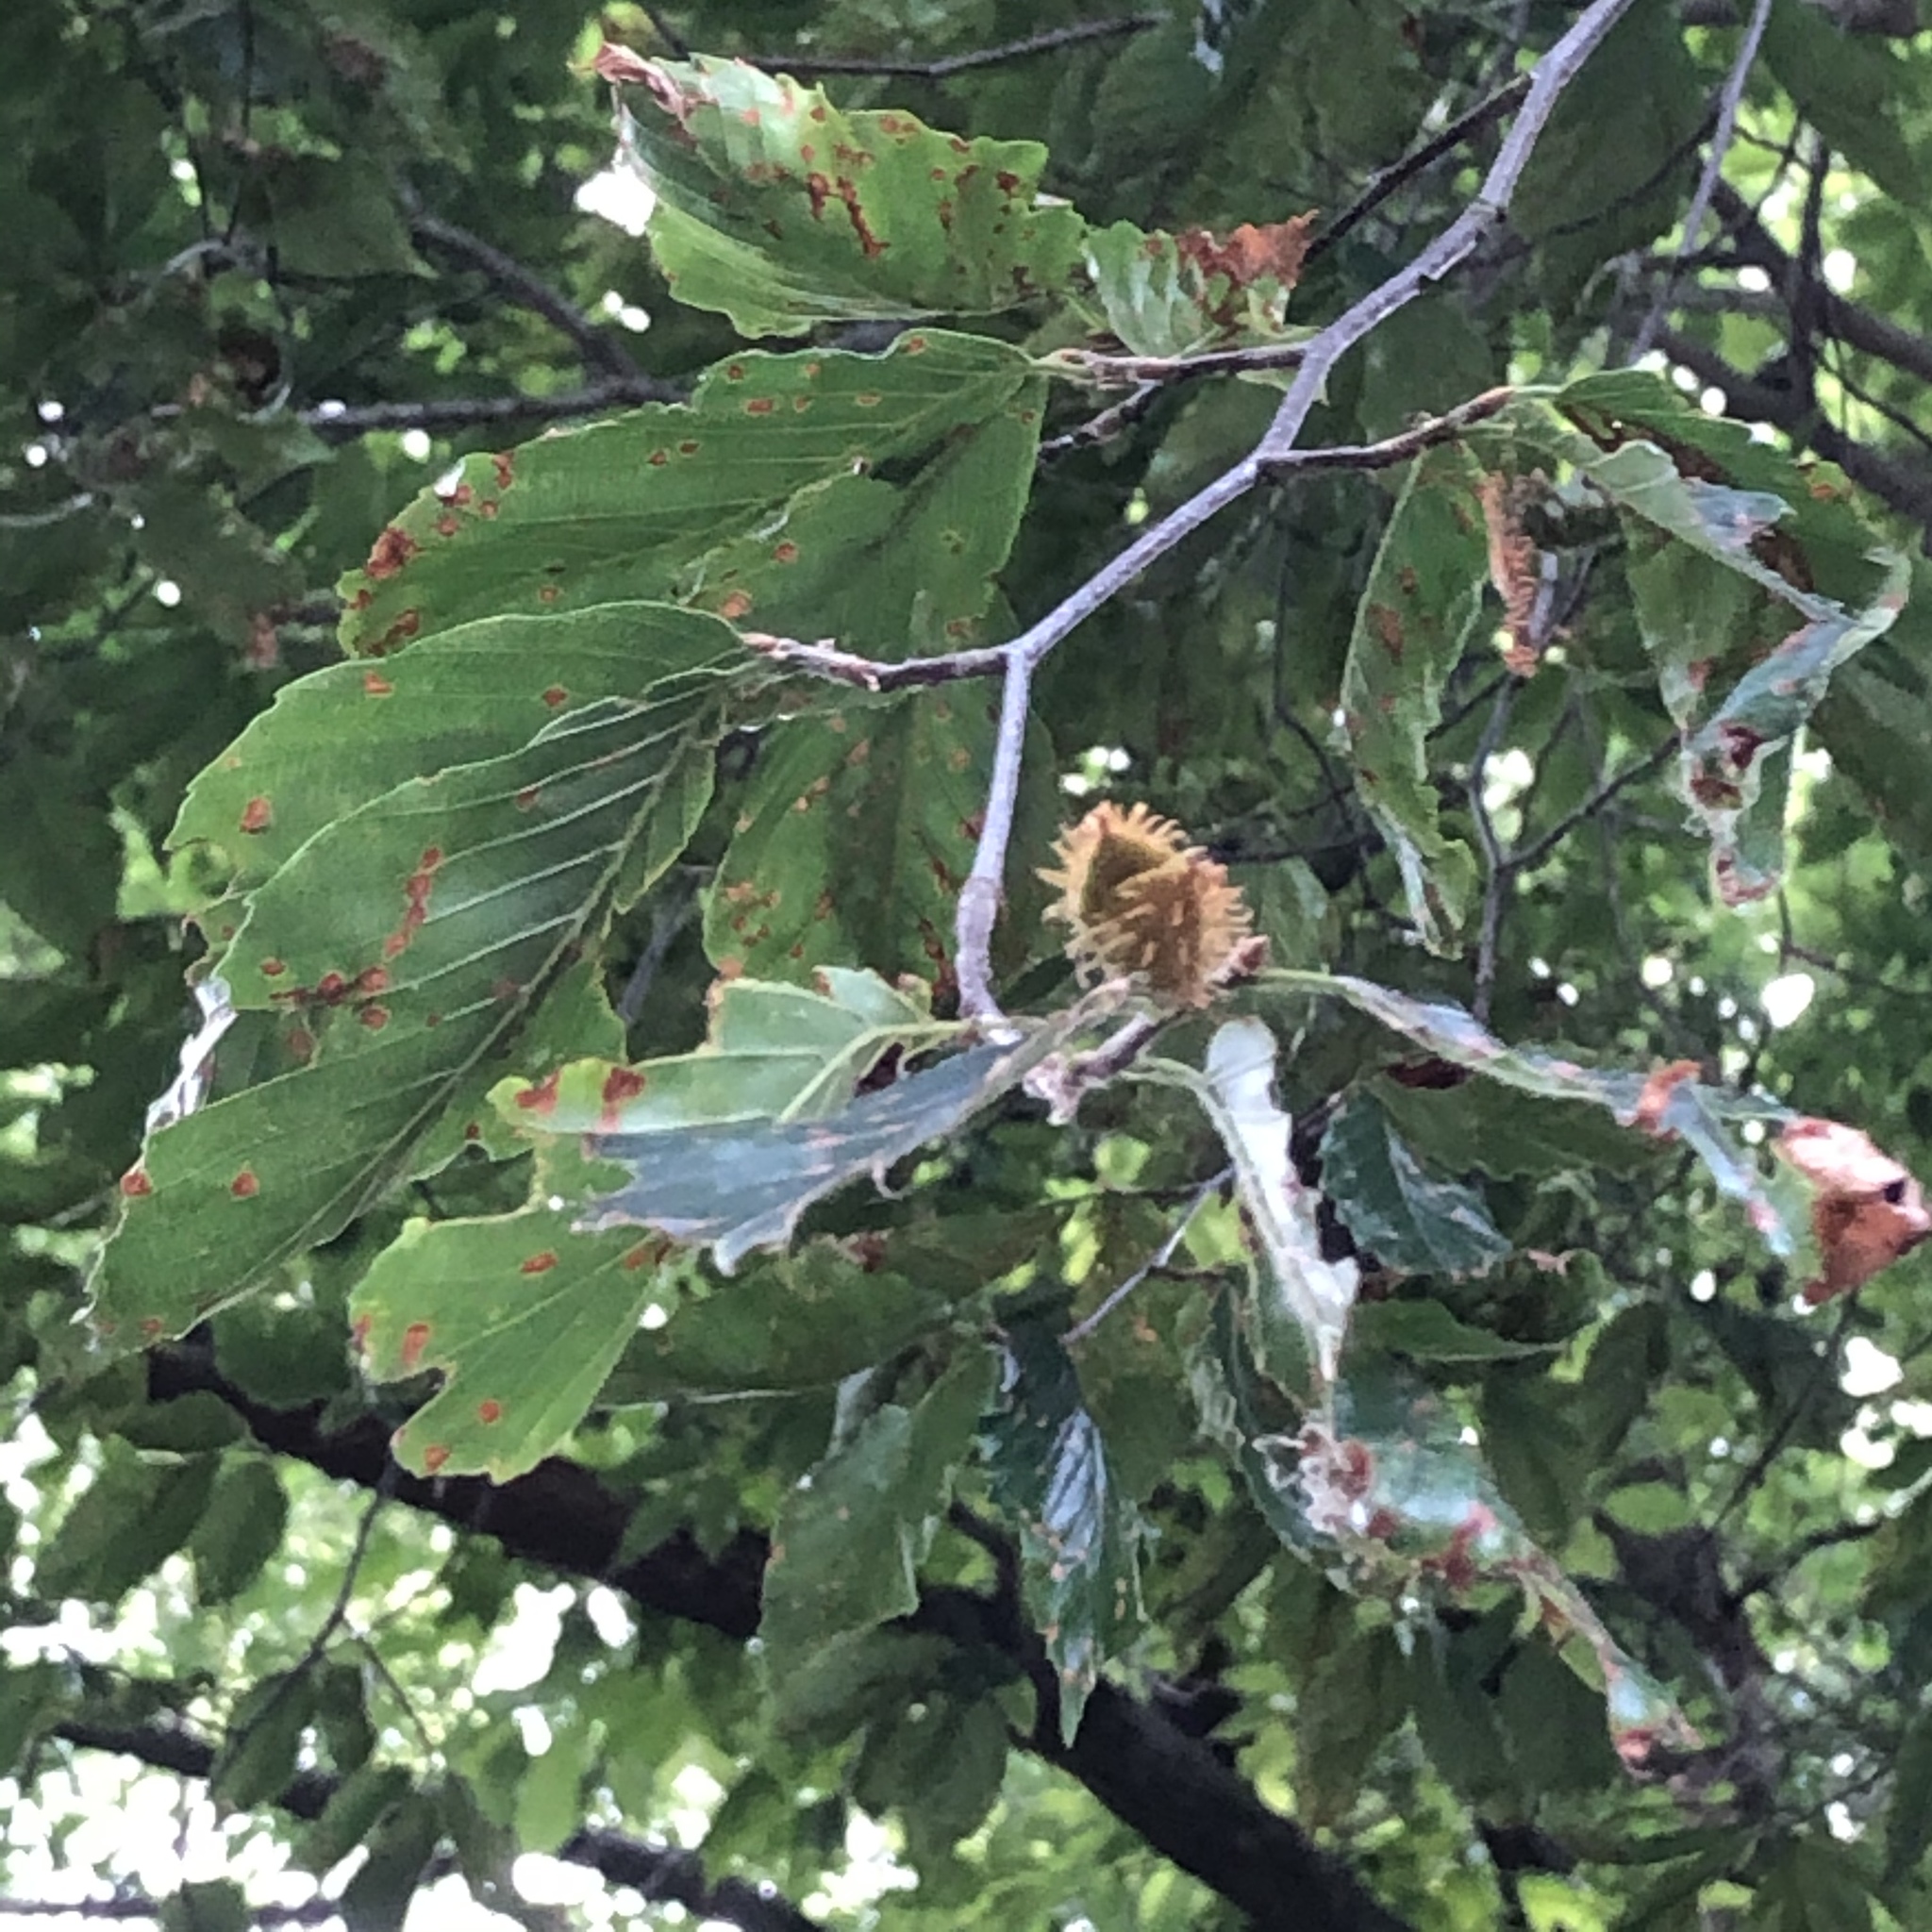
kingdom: Plantae
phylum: Tracheophyta
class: Magnoliopsida
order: Fagales
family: Fagaceae
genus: Fagus
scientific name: Fagus grandifolia
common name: American beech
